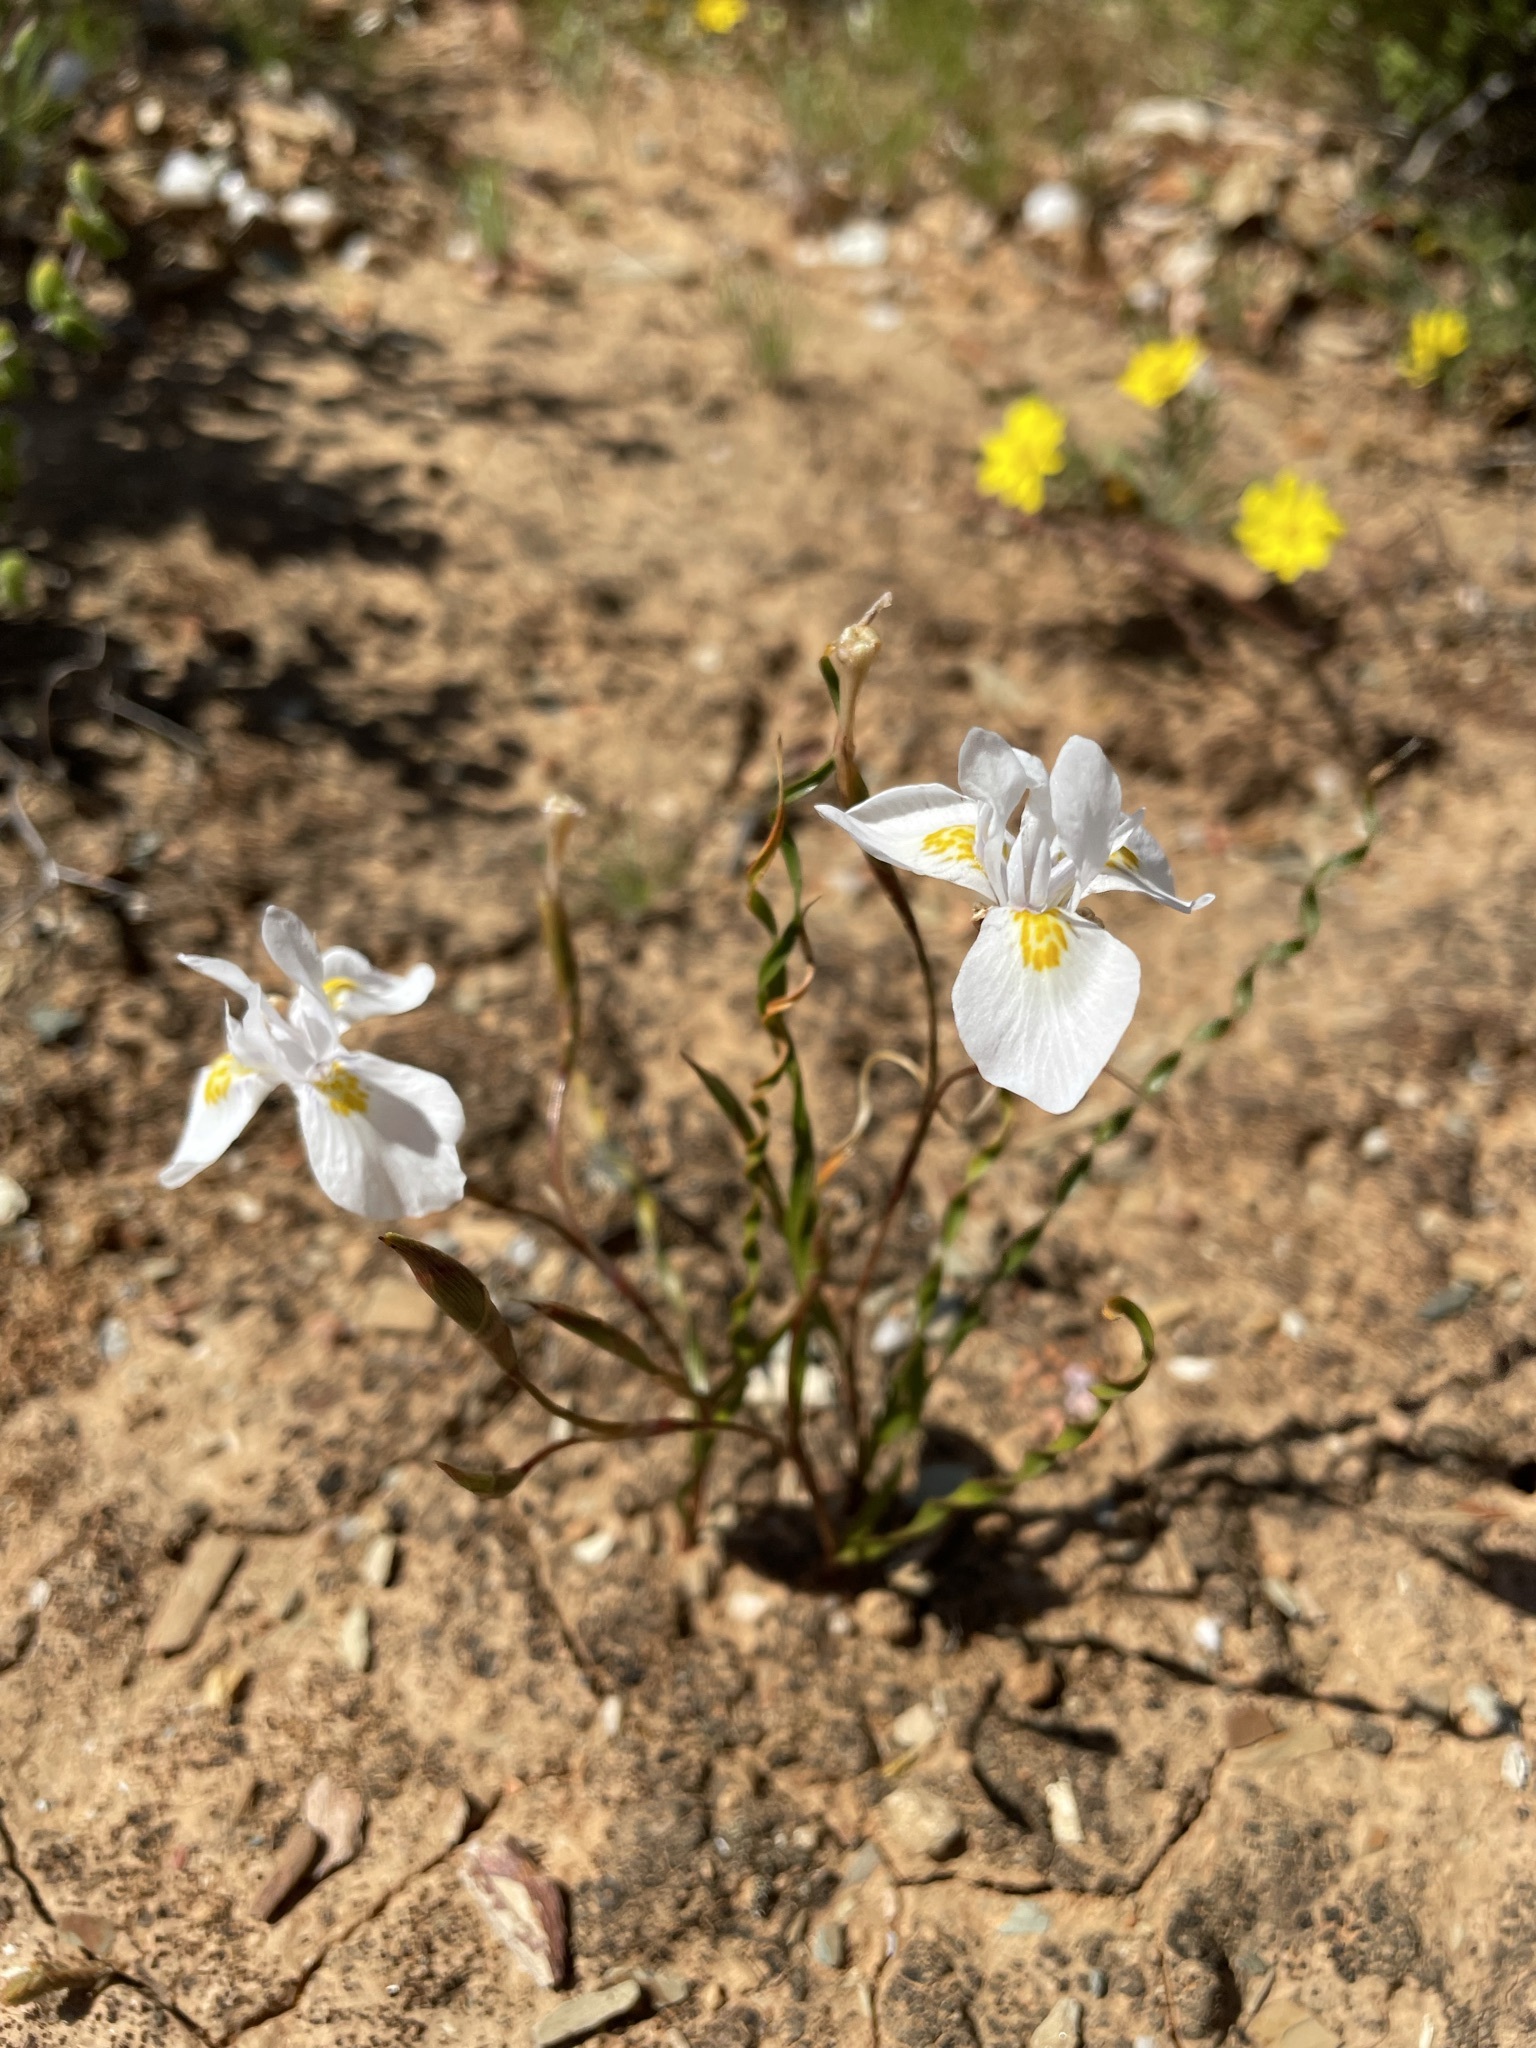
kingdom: Plantae
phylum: Tracheophyta
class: Liliopsida
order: Asparagales
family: Iridaceae
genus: Moraea
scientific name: Moraea serpentina
